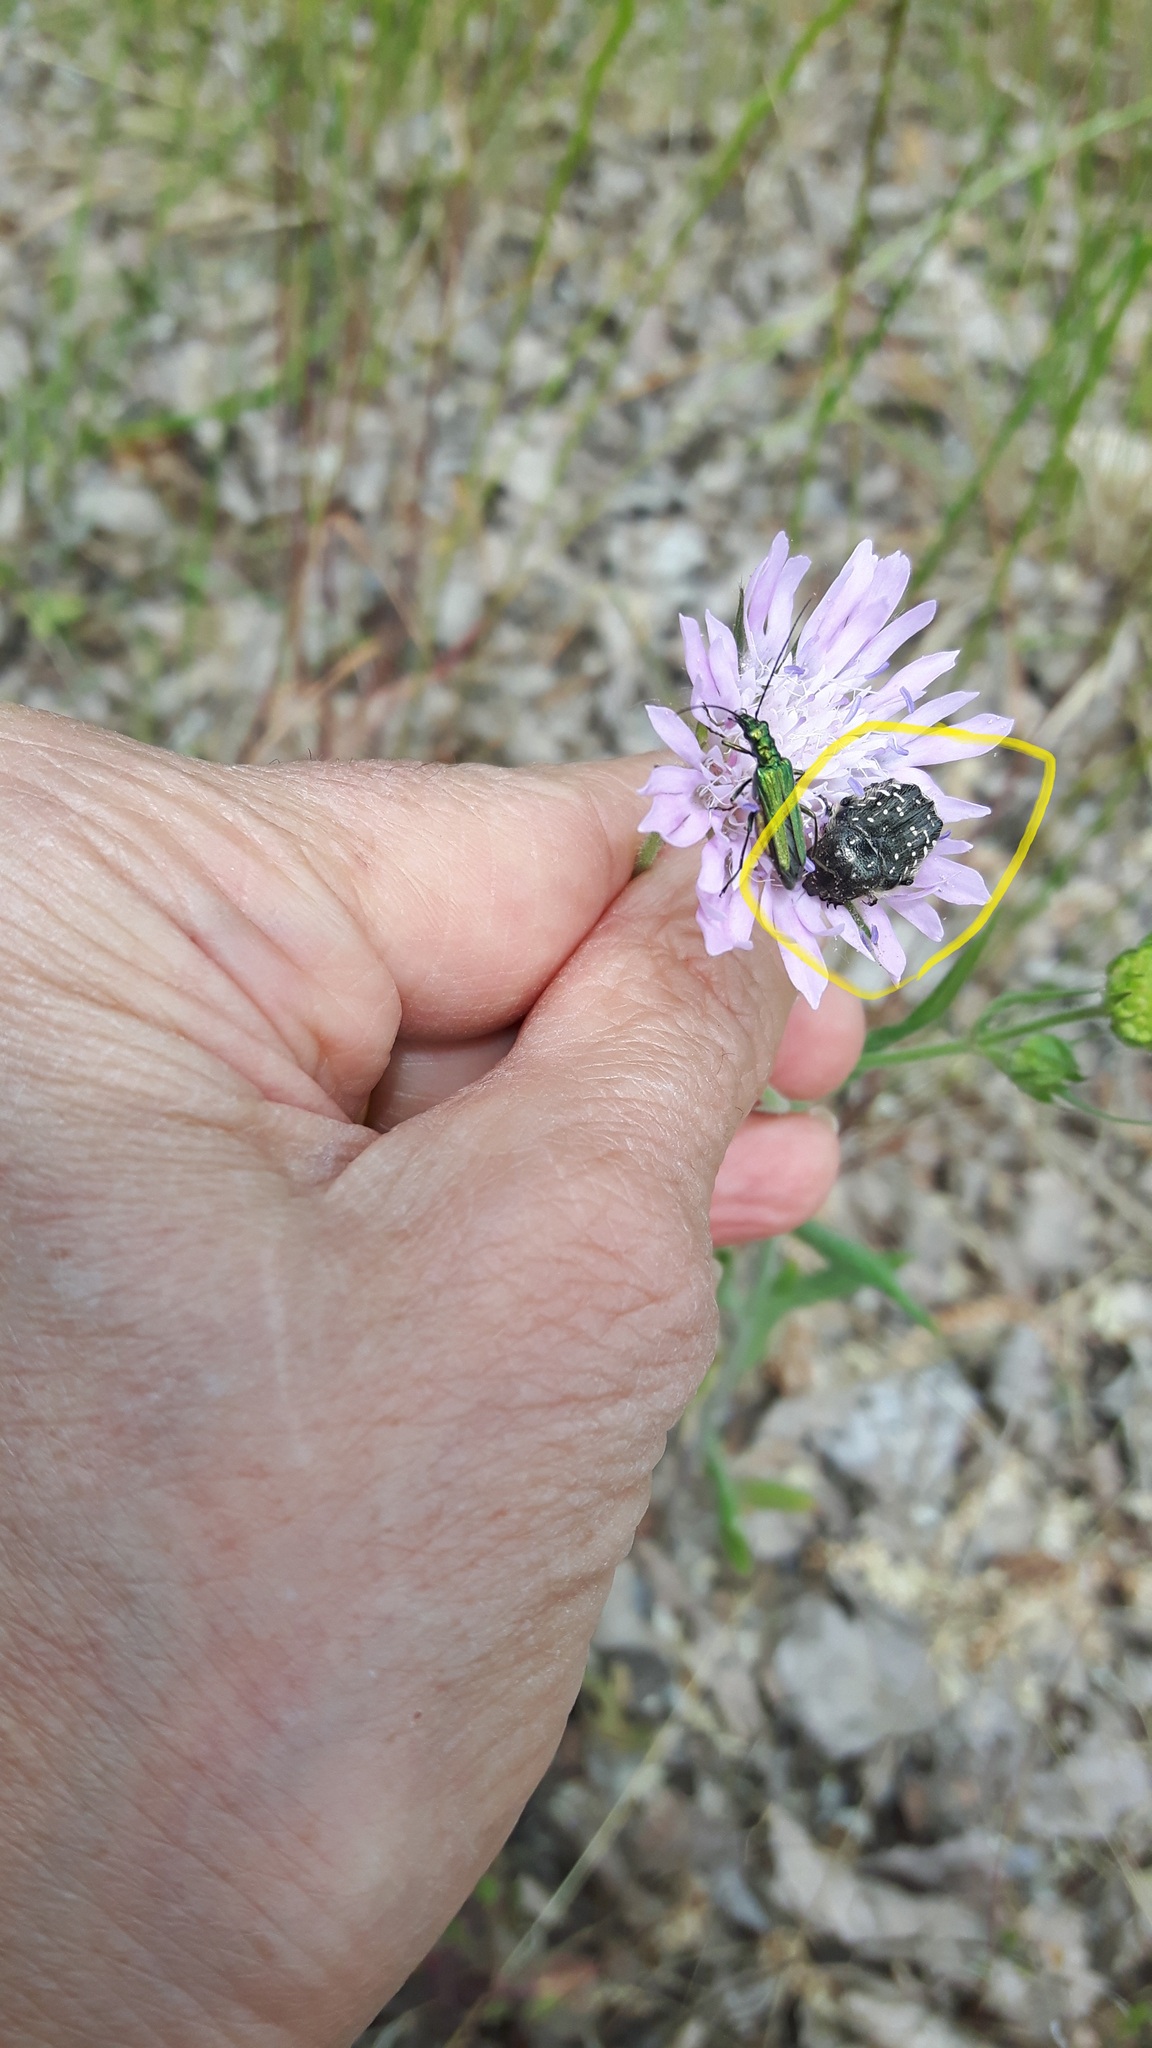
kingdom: Animalia
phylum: Arthropoda
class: Insecta
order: Coleoptera
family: Scarabaeidae
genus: Oxythyrea
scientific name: Oxythyrea funesta
